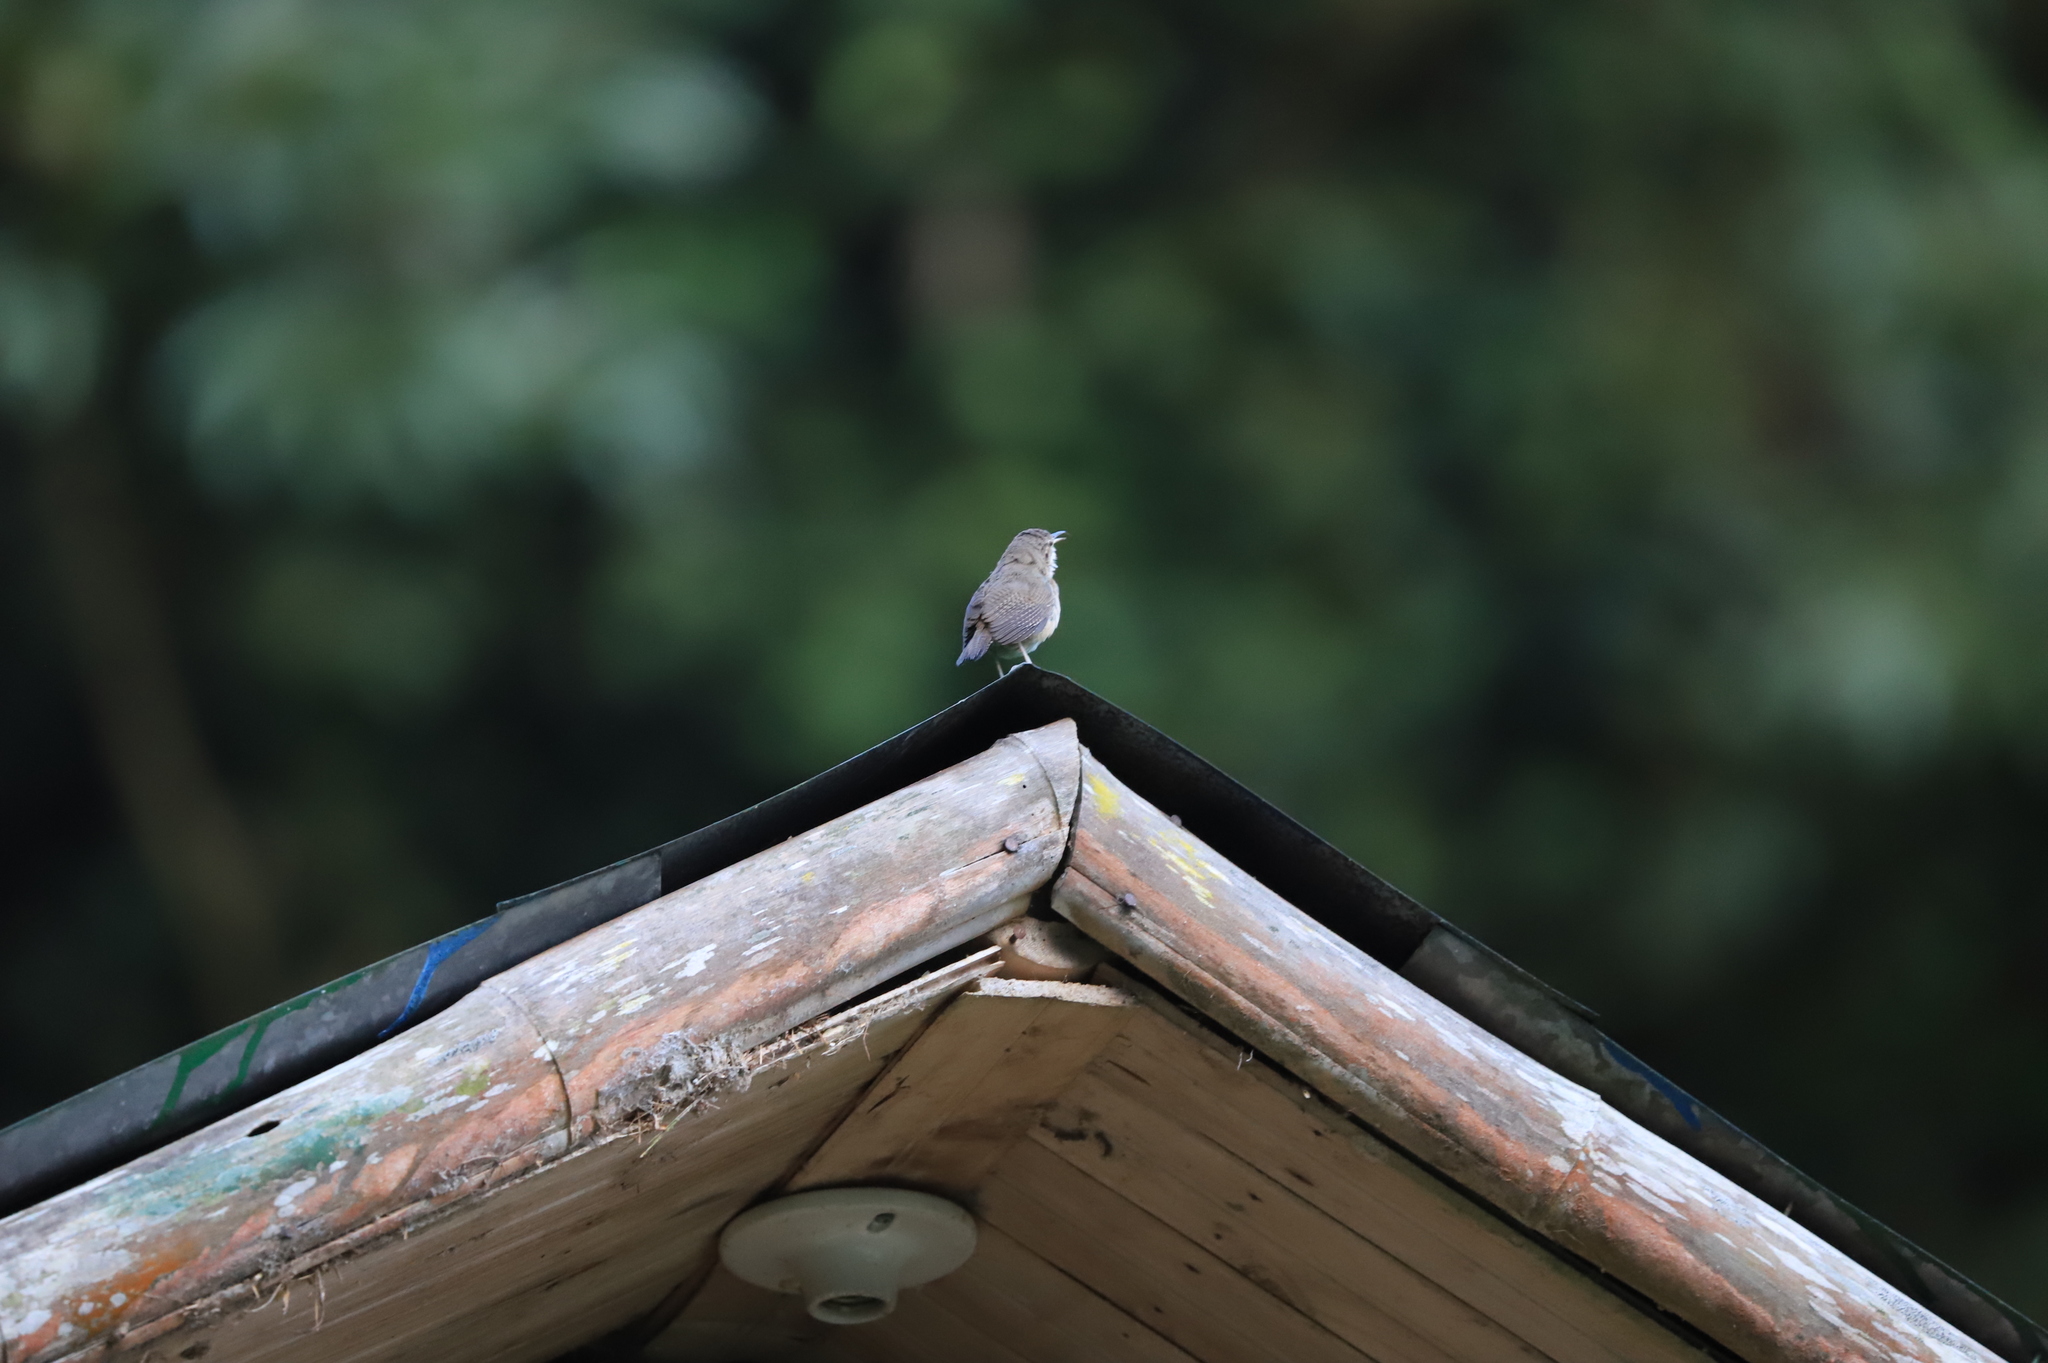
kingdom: Animalia
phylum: Chordata
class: Aves
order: Passeriformes
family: Troglodytidae
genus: Troglodytes
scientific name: Troglodytes aedon
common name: House wren
